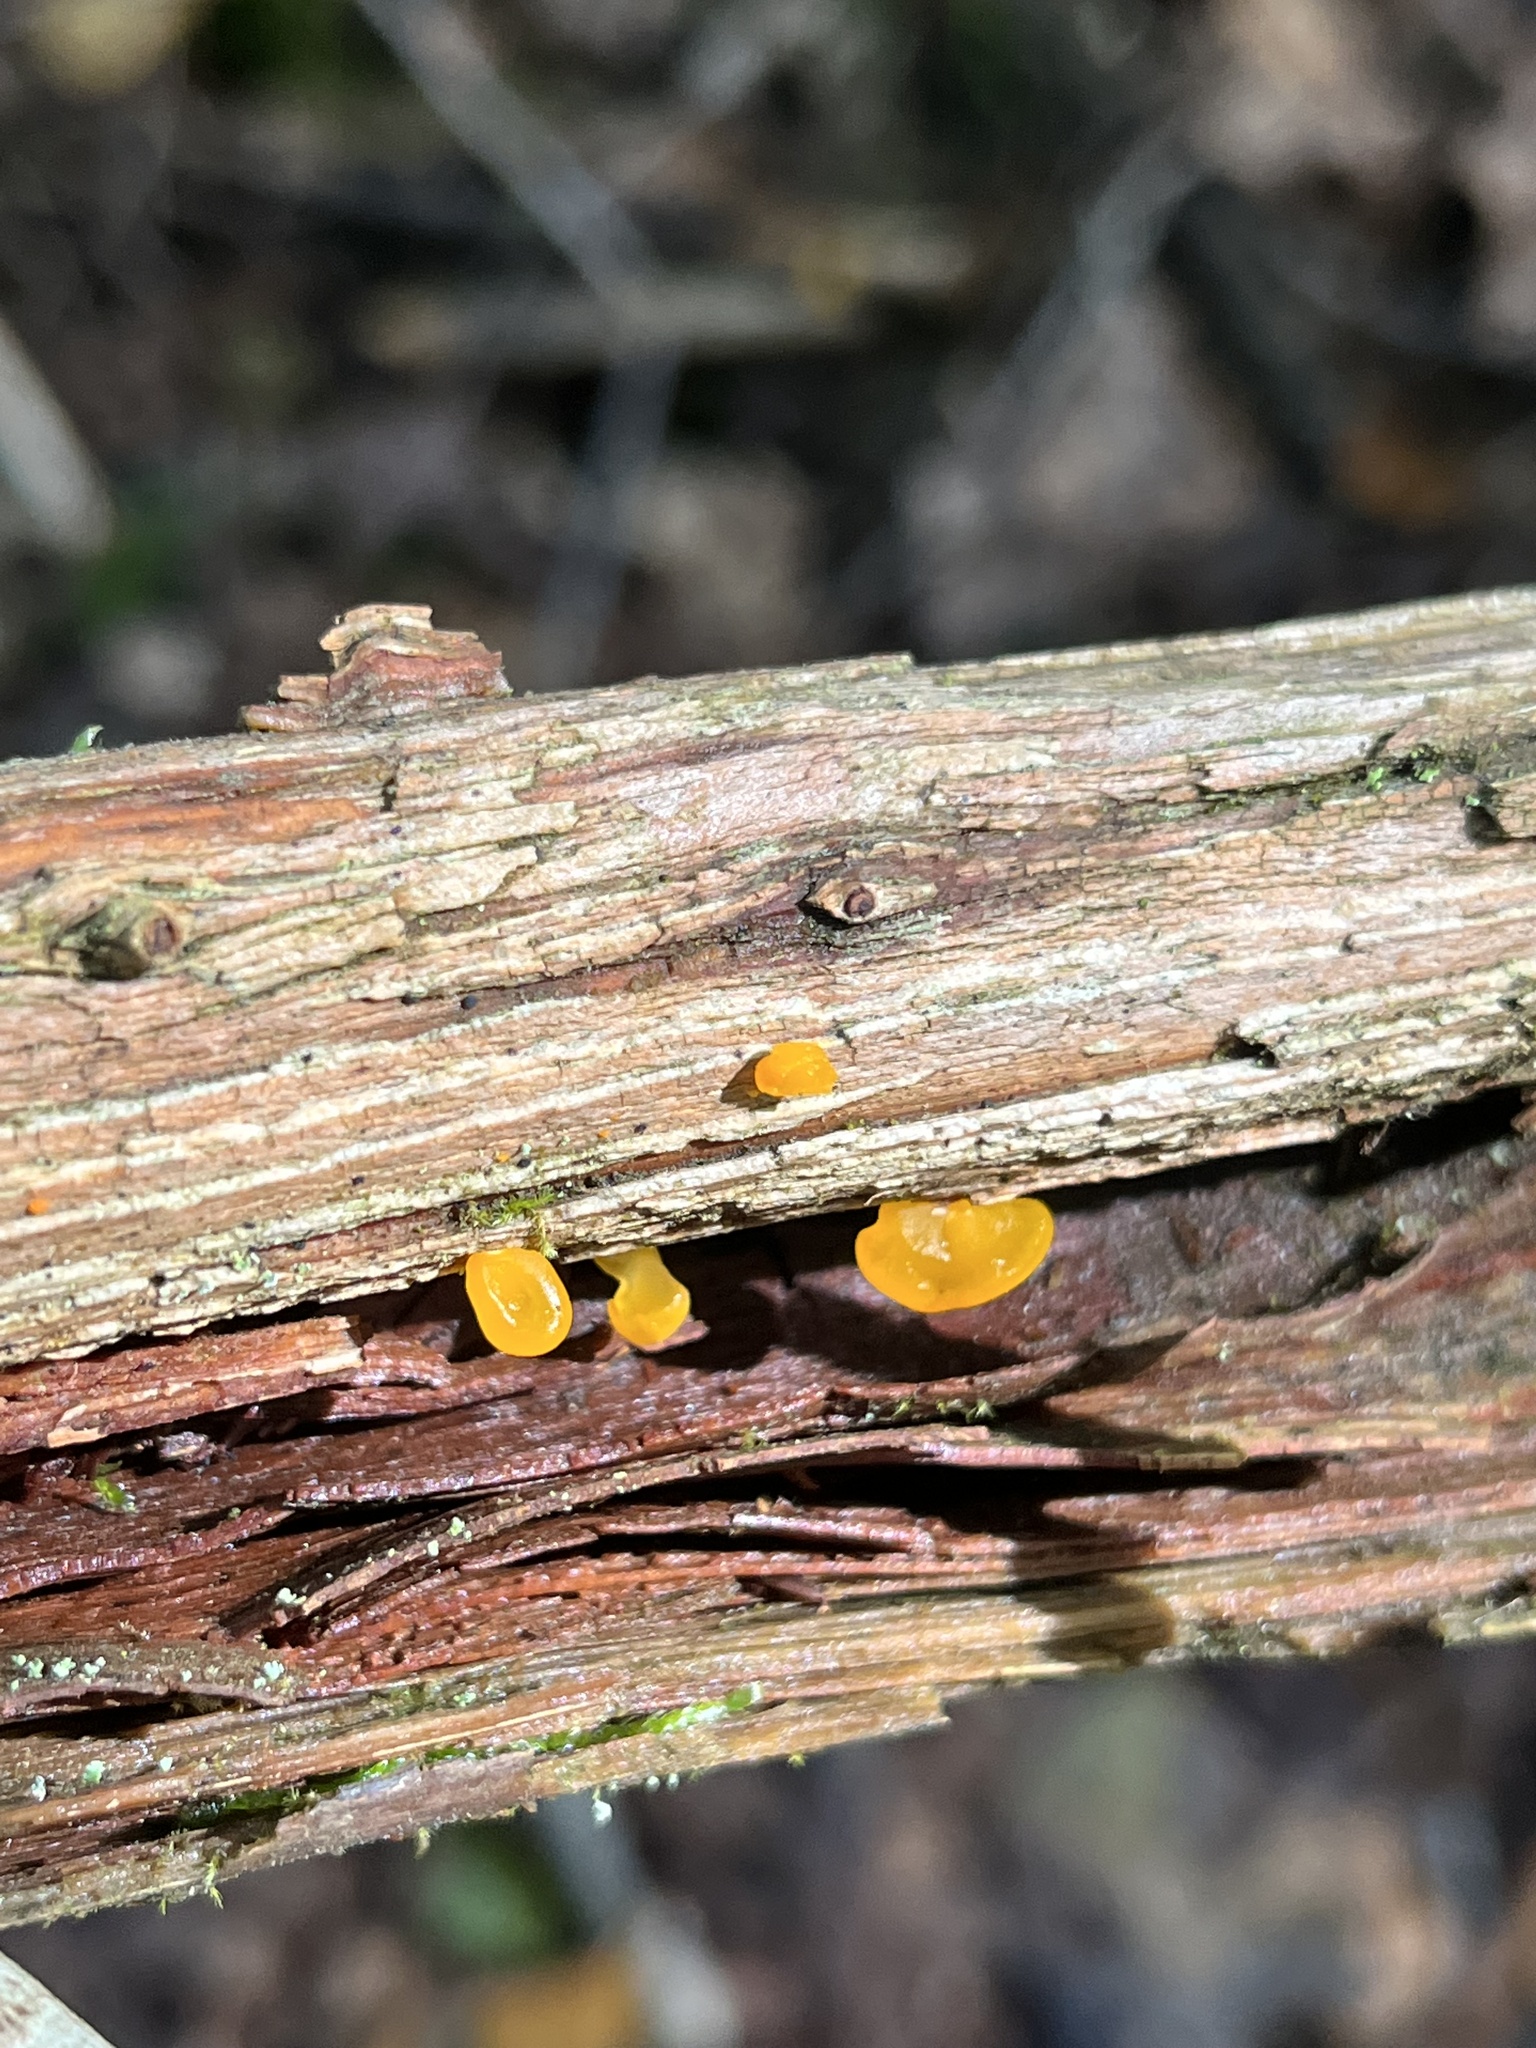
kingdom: Fungi
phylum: Basidiomycota
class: Dacrymycetes
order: Dacrymycetales
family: Dacrymycetaceae
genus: Dacrymyces
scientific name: Dacrymyces chrysospermus
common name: Orange jelly spot
